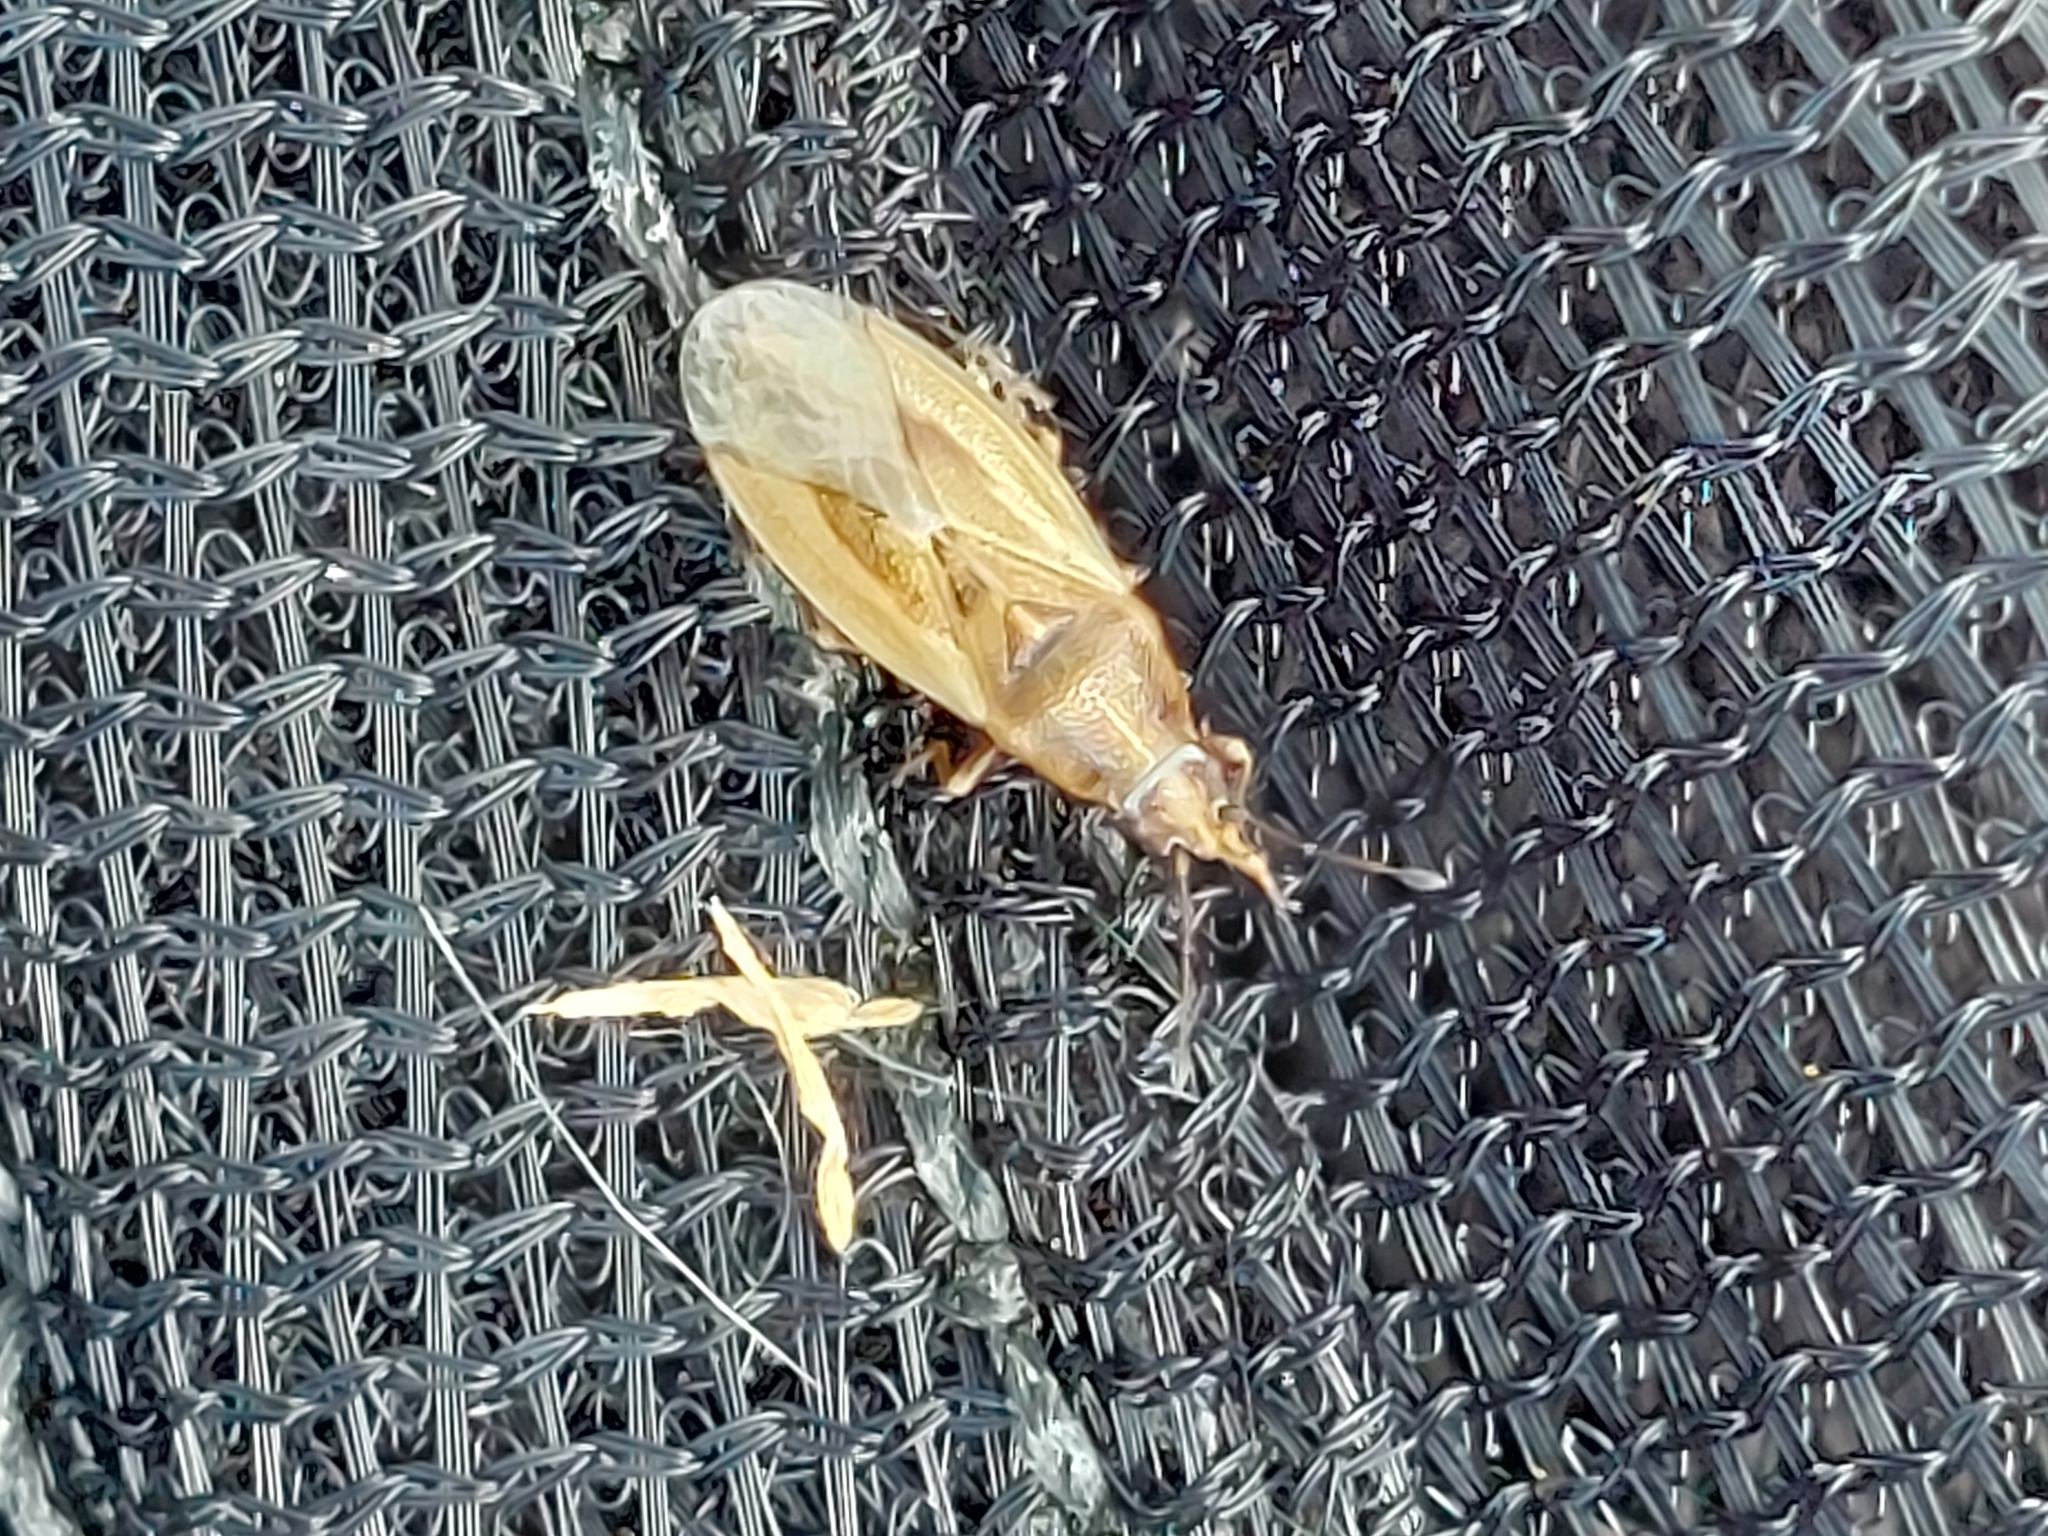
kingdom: Animalia
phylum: Arthropoda
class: Insecta
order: Hemiptera
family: Cymidae
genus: Cymus
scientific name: Cymus glandicolor
